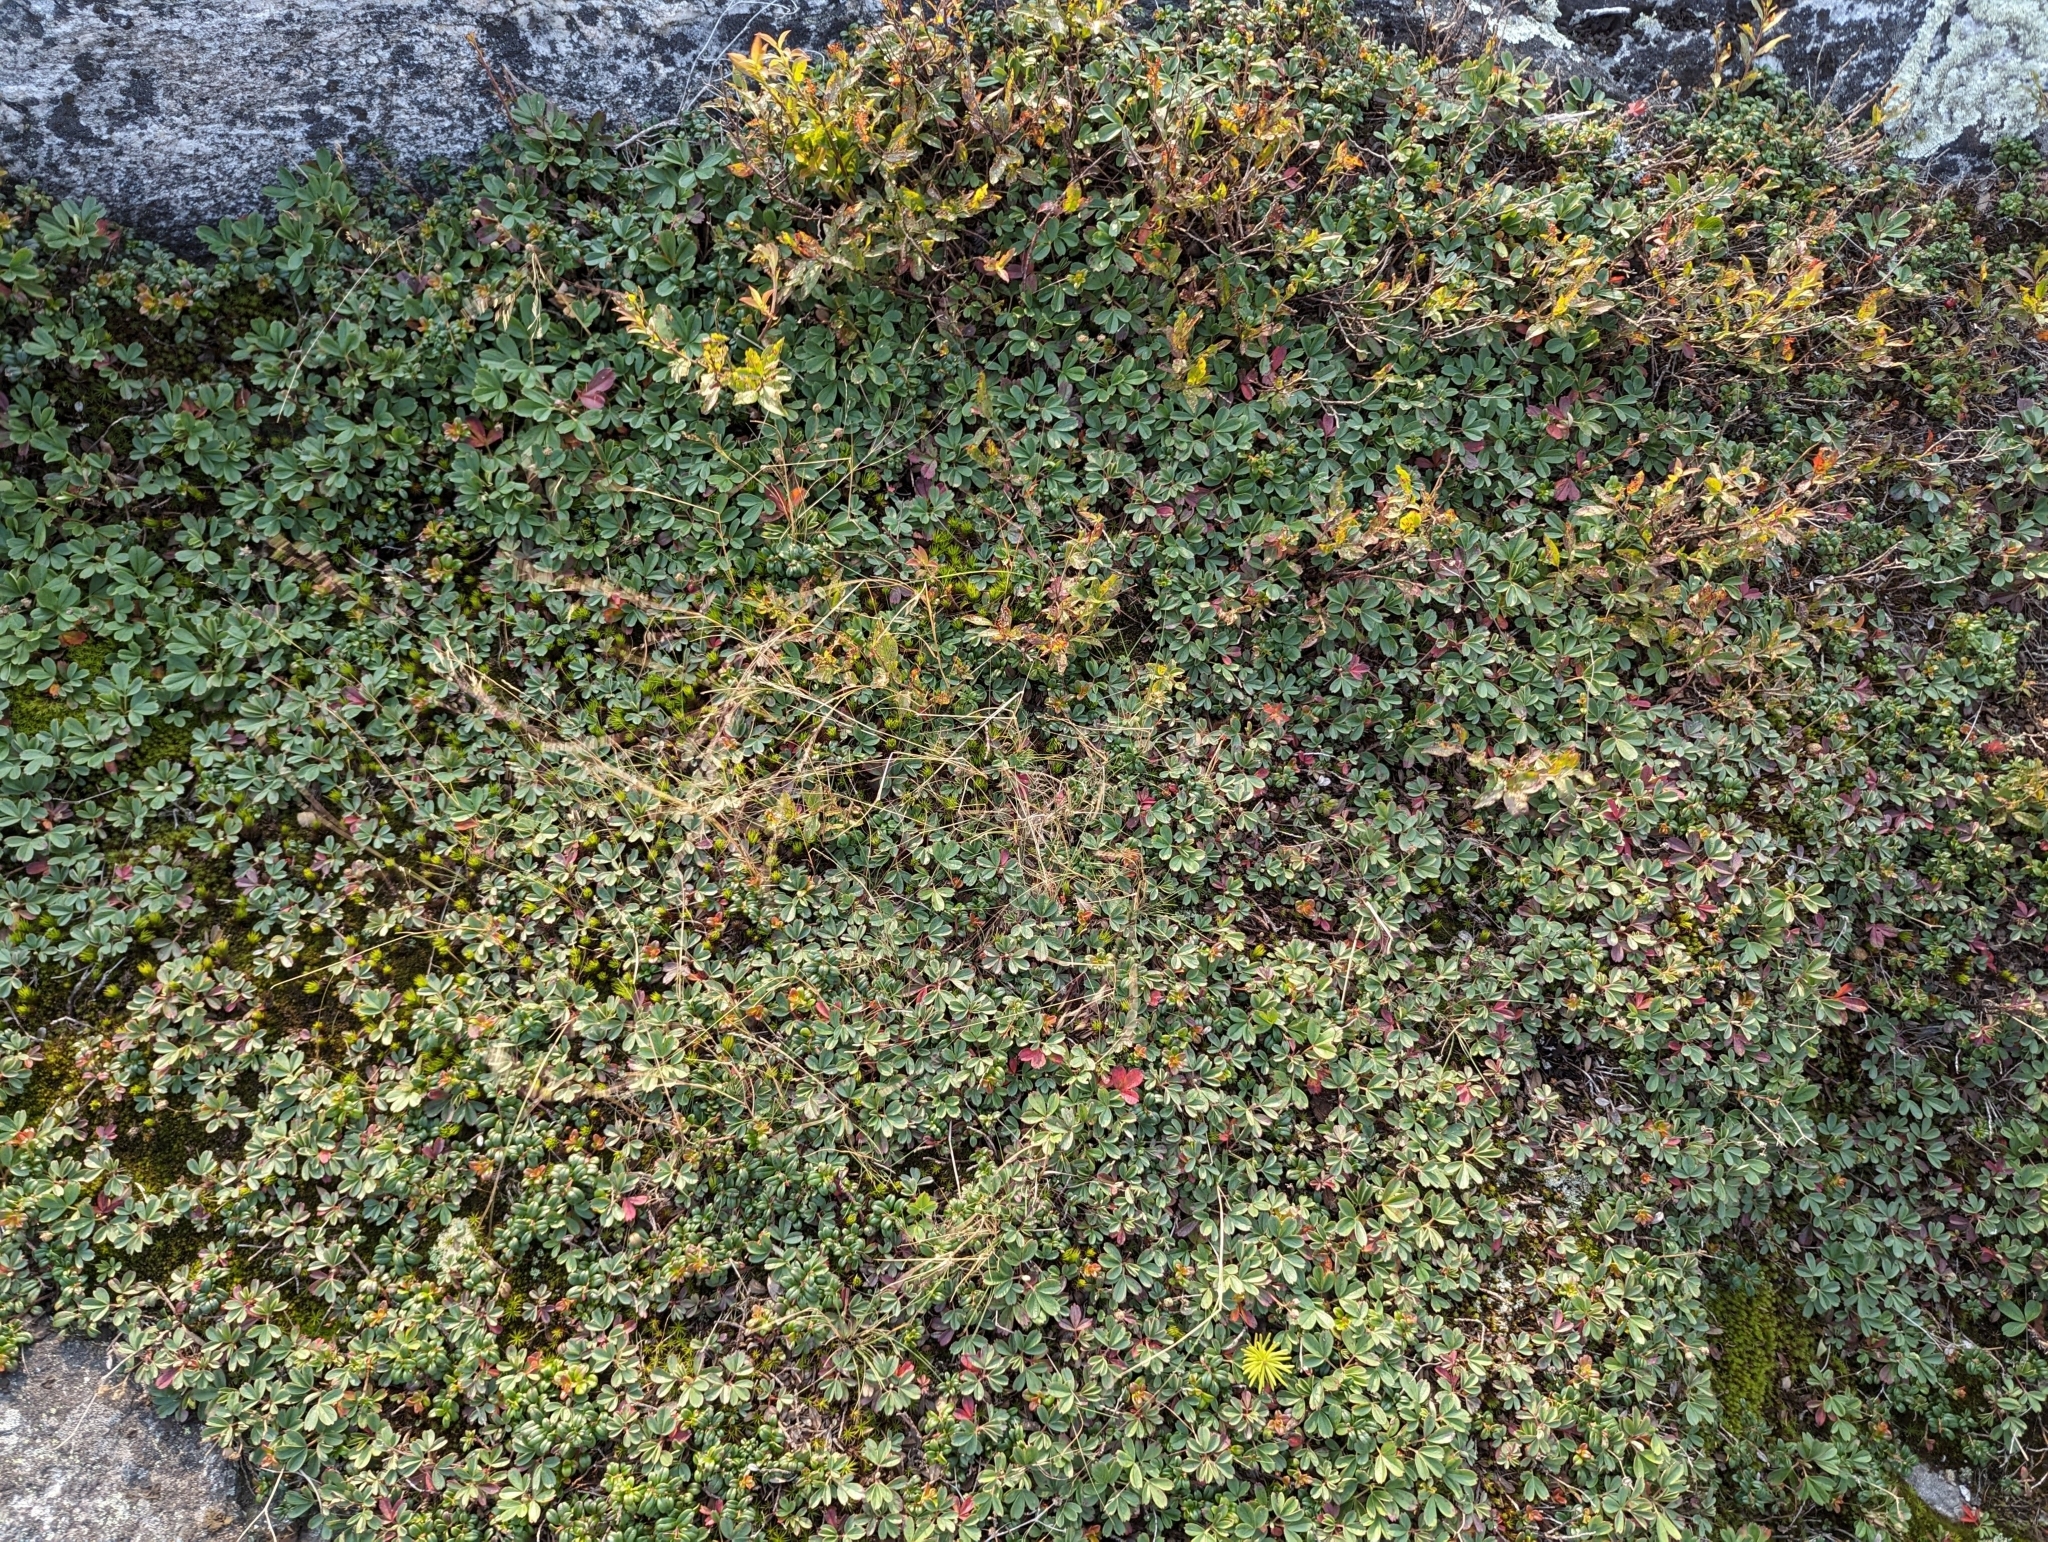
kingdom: Plantae
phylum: Tracheophyta
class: Magnoliopsida
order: Rosales
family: Rosaceae
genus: Sibbaldia
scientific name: Sibbaldia tridentata
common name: Three-toothed cinquefoil
